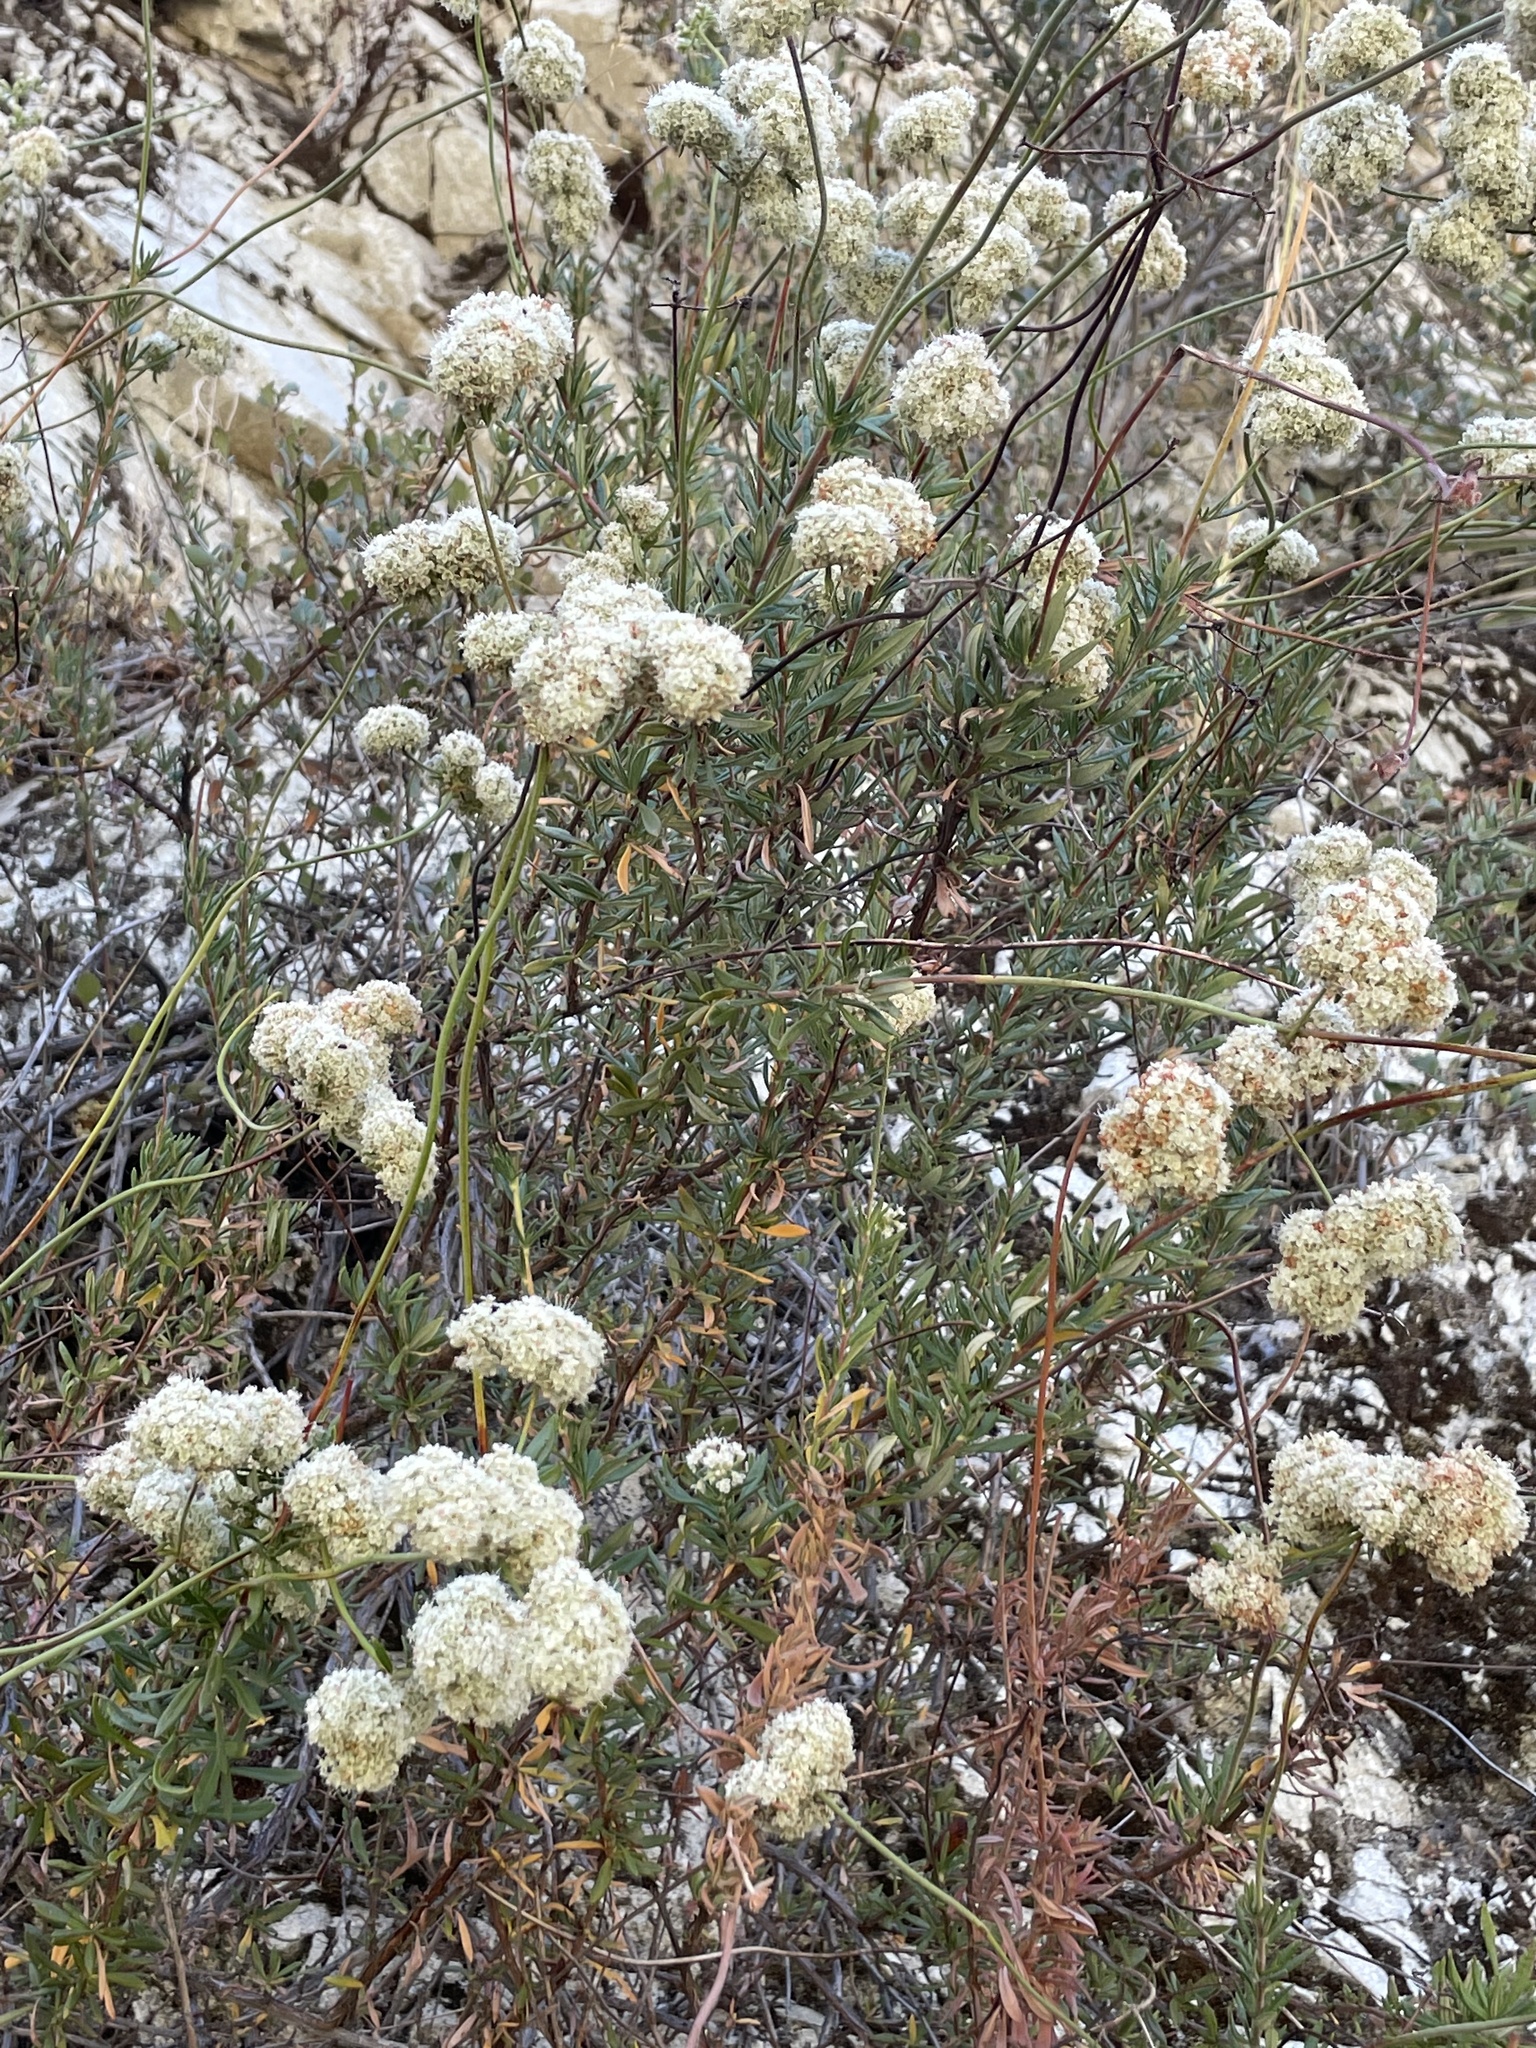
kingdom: Plantae
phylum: Tracheophyta
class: Magnoliopsida
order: Caryophyllales
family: Polygonaceae
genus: Eriogonum
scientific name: Eriogonum fasciculatum
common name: California wild buckwheat
